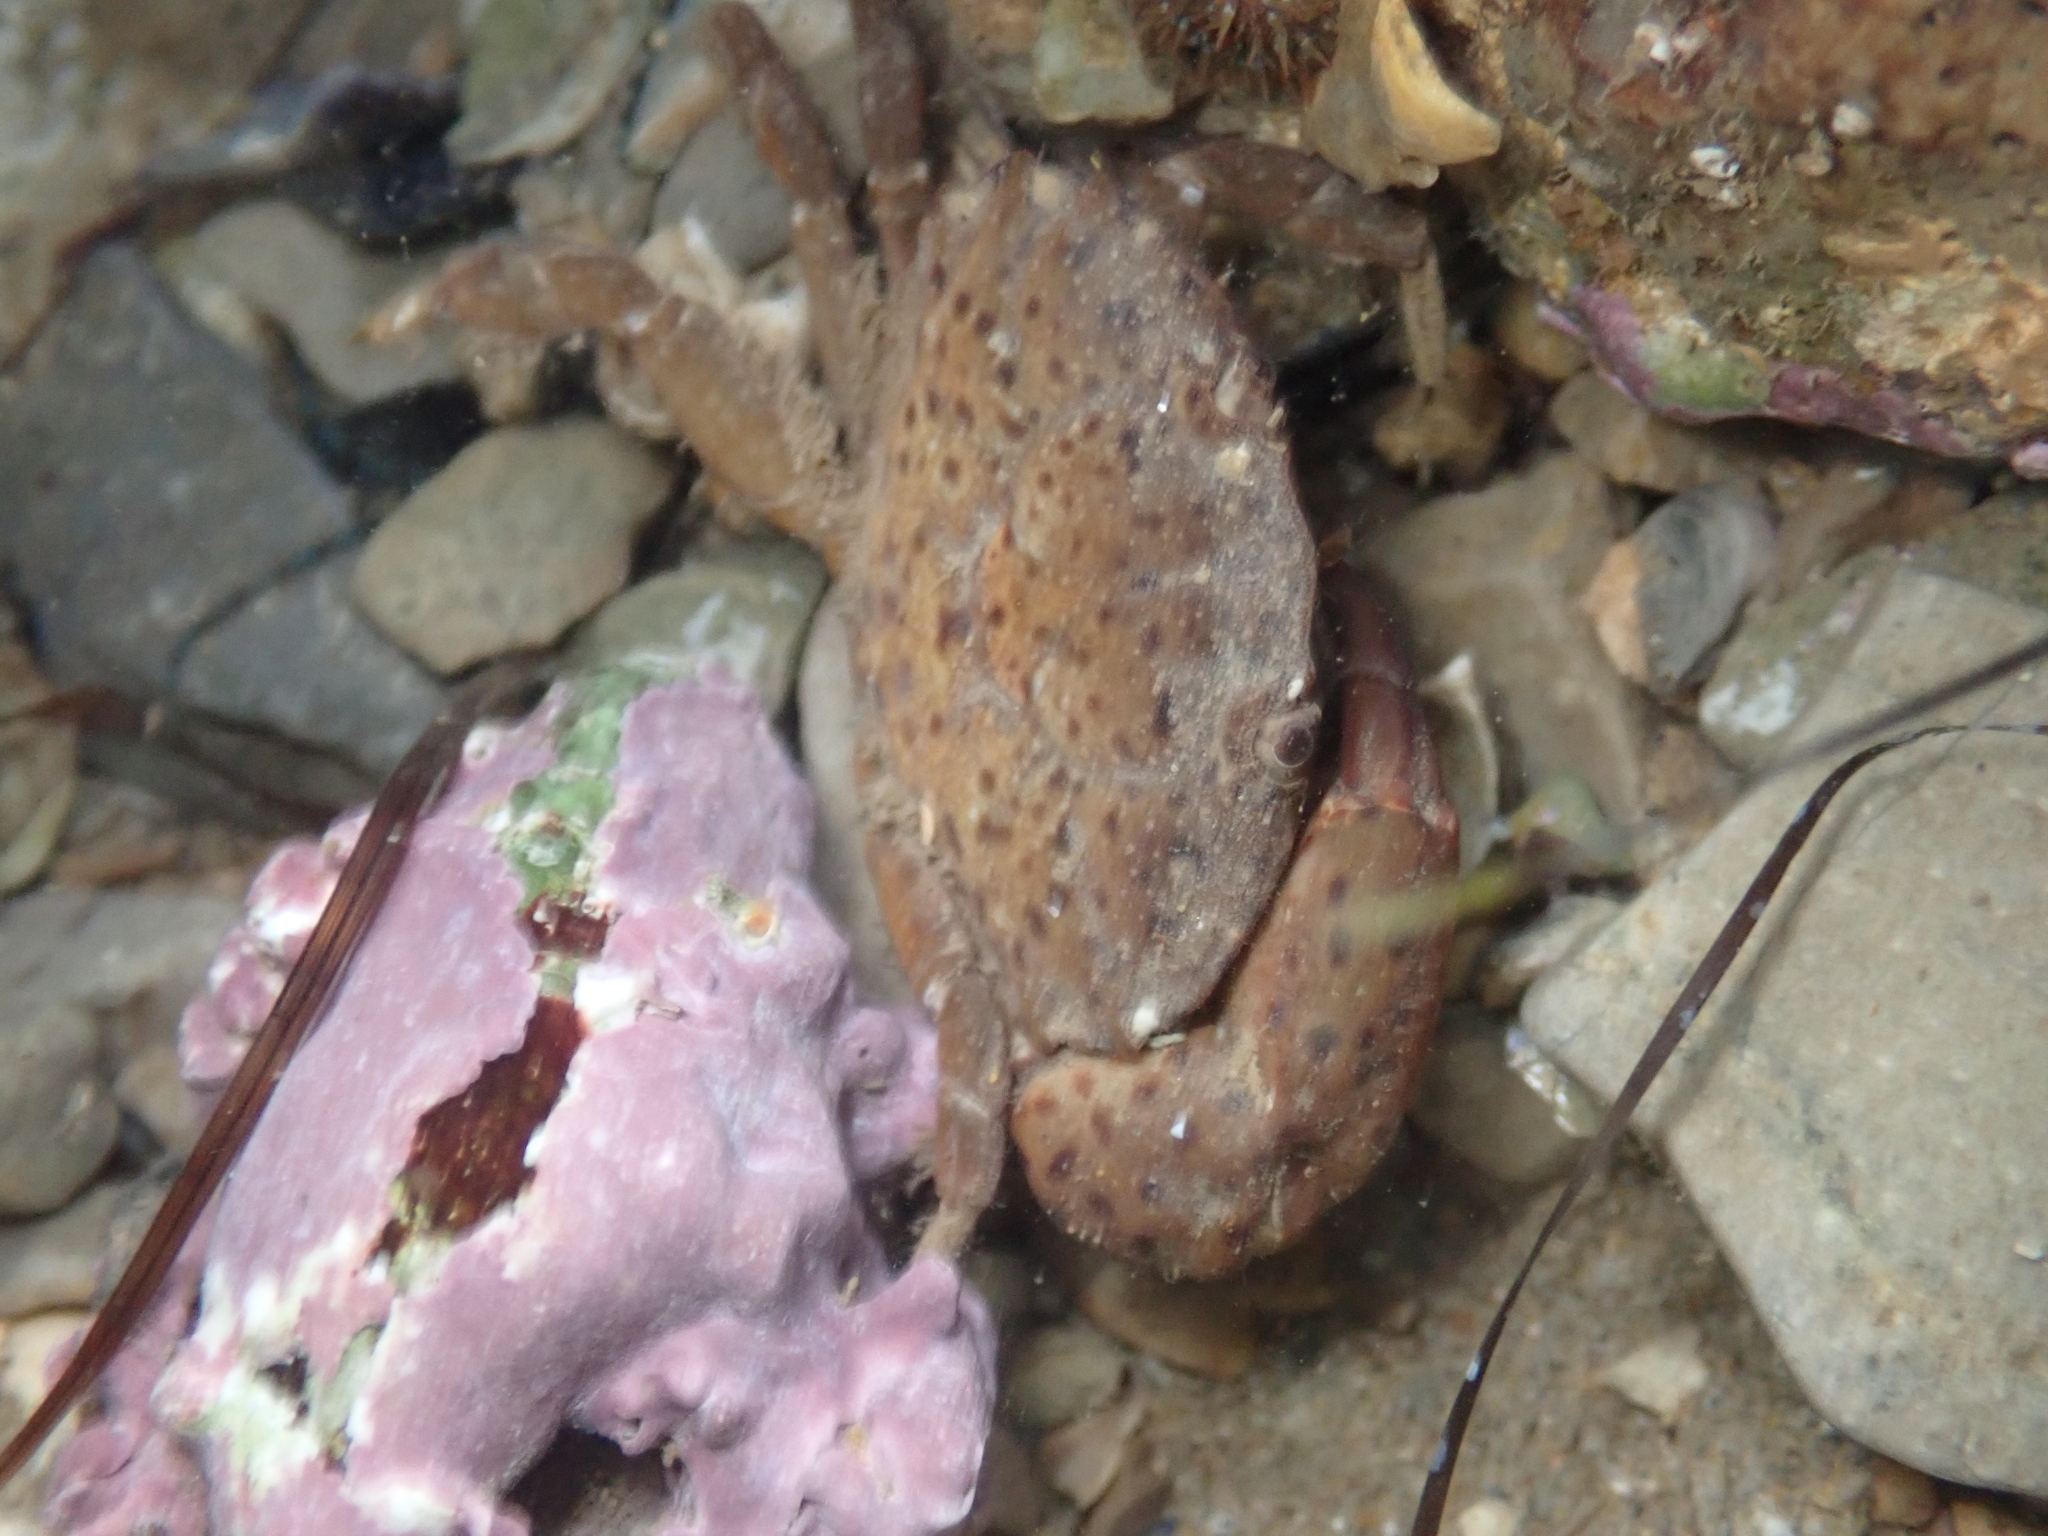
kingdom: Animalia
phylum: Arthropoda
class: Malacostraca
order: Decapoda
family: Xanthidae
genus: Xantho
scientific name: Xantho poressa
